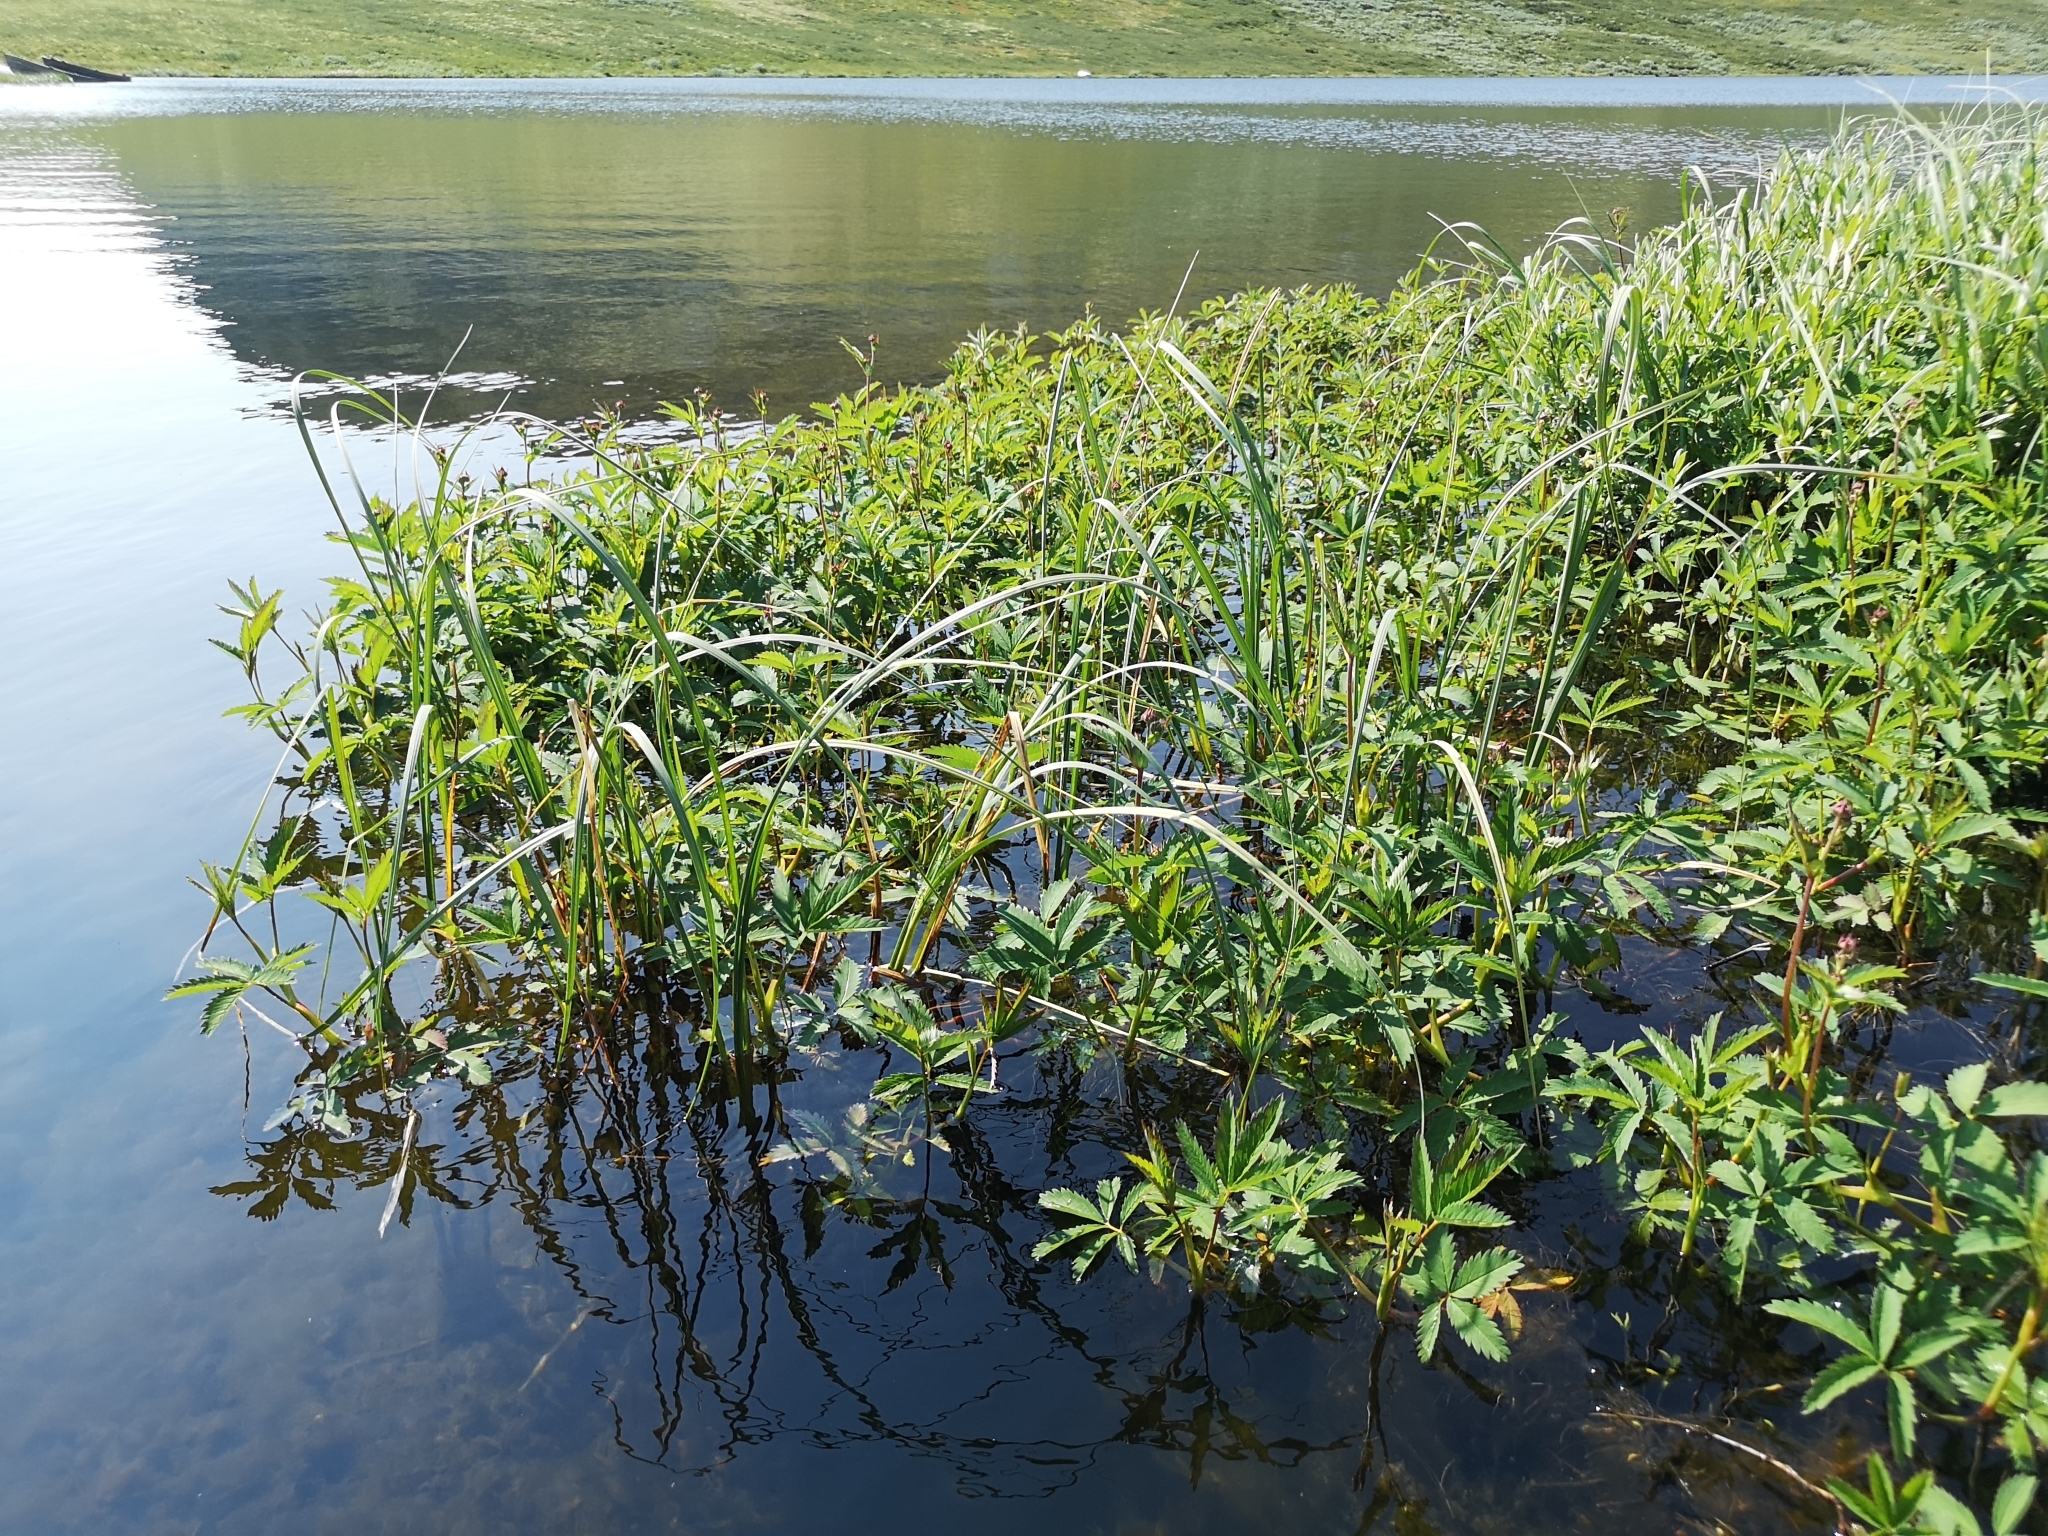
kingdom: Plantae
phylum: Tracheophyta
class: Magnoliopsida
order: Rosales
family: Rosaceae
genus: Comarum
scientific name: Comarum palustre
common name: Marsh cinquefoil
